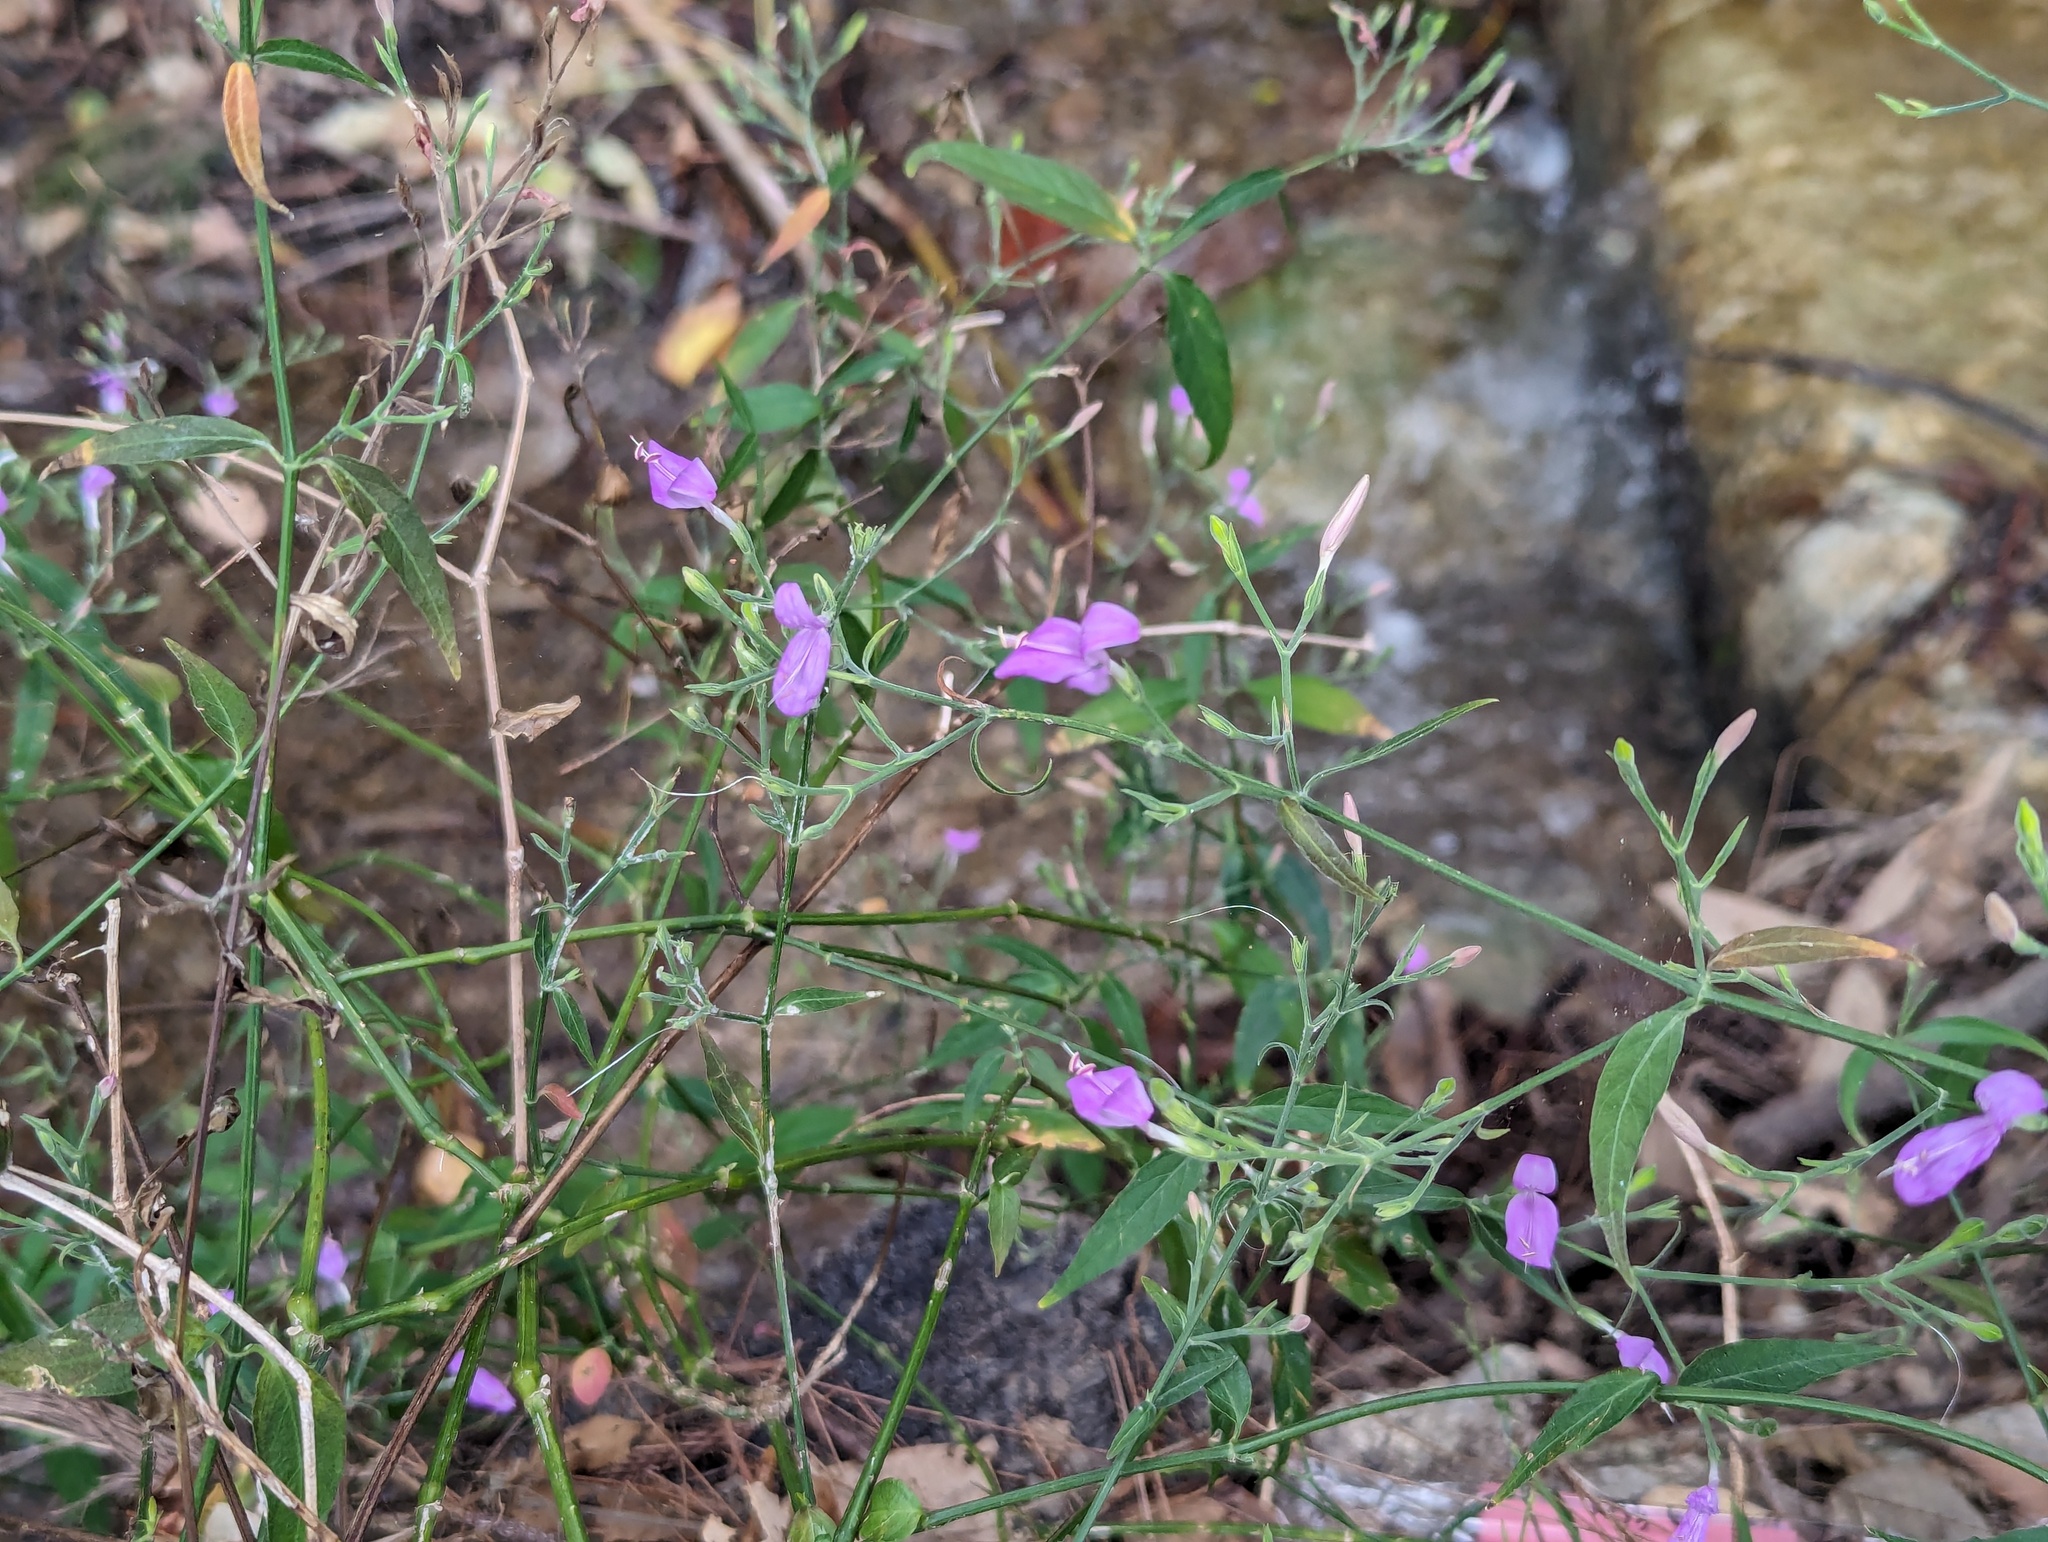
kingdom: Plantae
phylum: Tracheophyta
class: Magnoliopsida
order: Lamiales
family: Acanthaceae
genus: Hypoestes
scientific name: Hypoestes cumingiana
